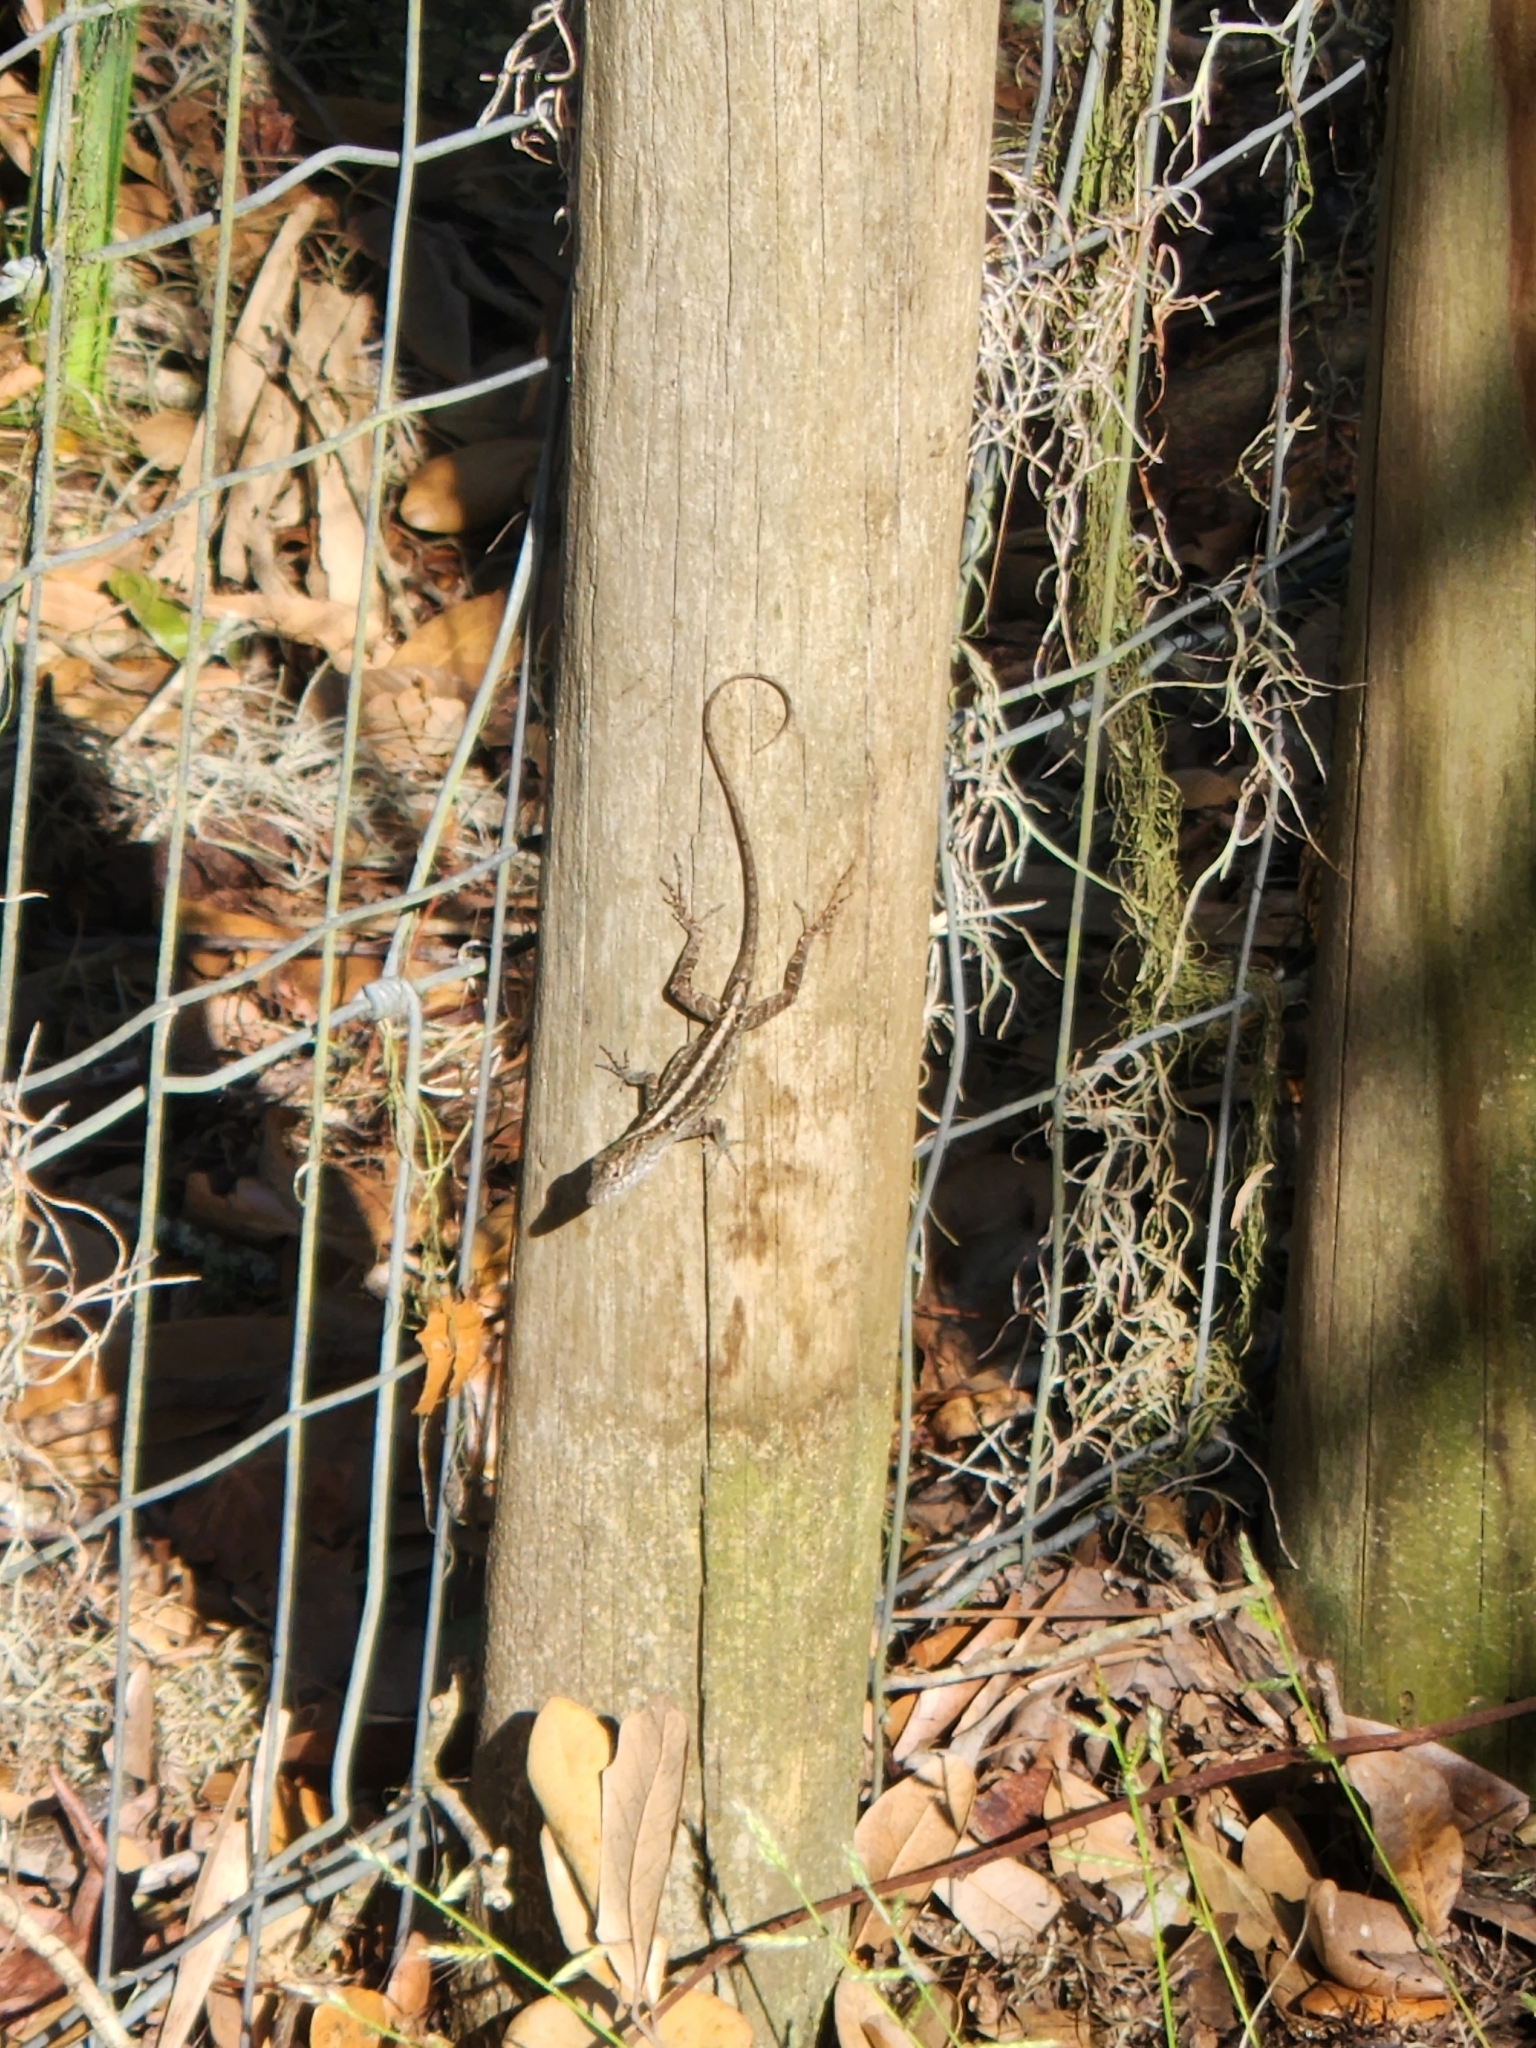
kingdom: Animalia
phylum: Chordata
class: Squamata
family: Dactyloidae
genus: Anolis
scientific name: Anolis sagrei
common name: Brown anole
